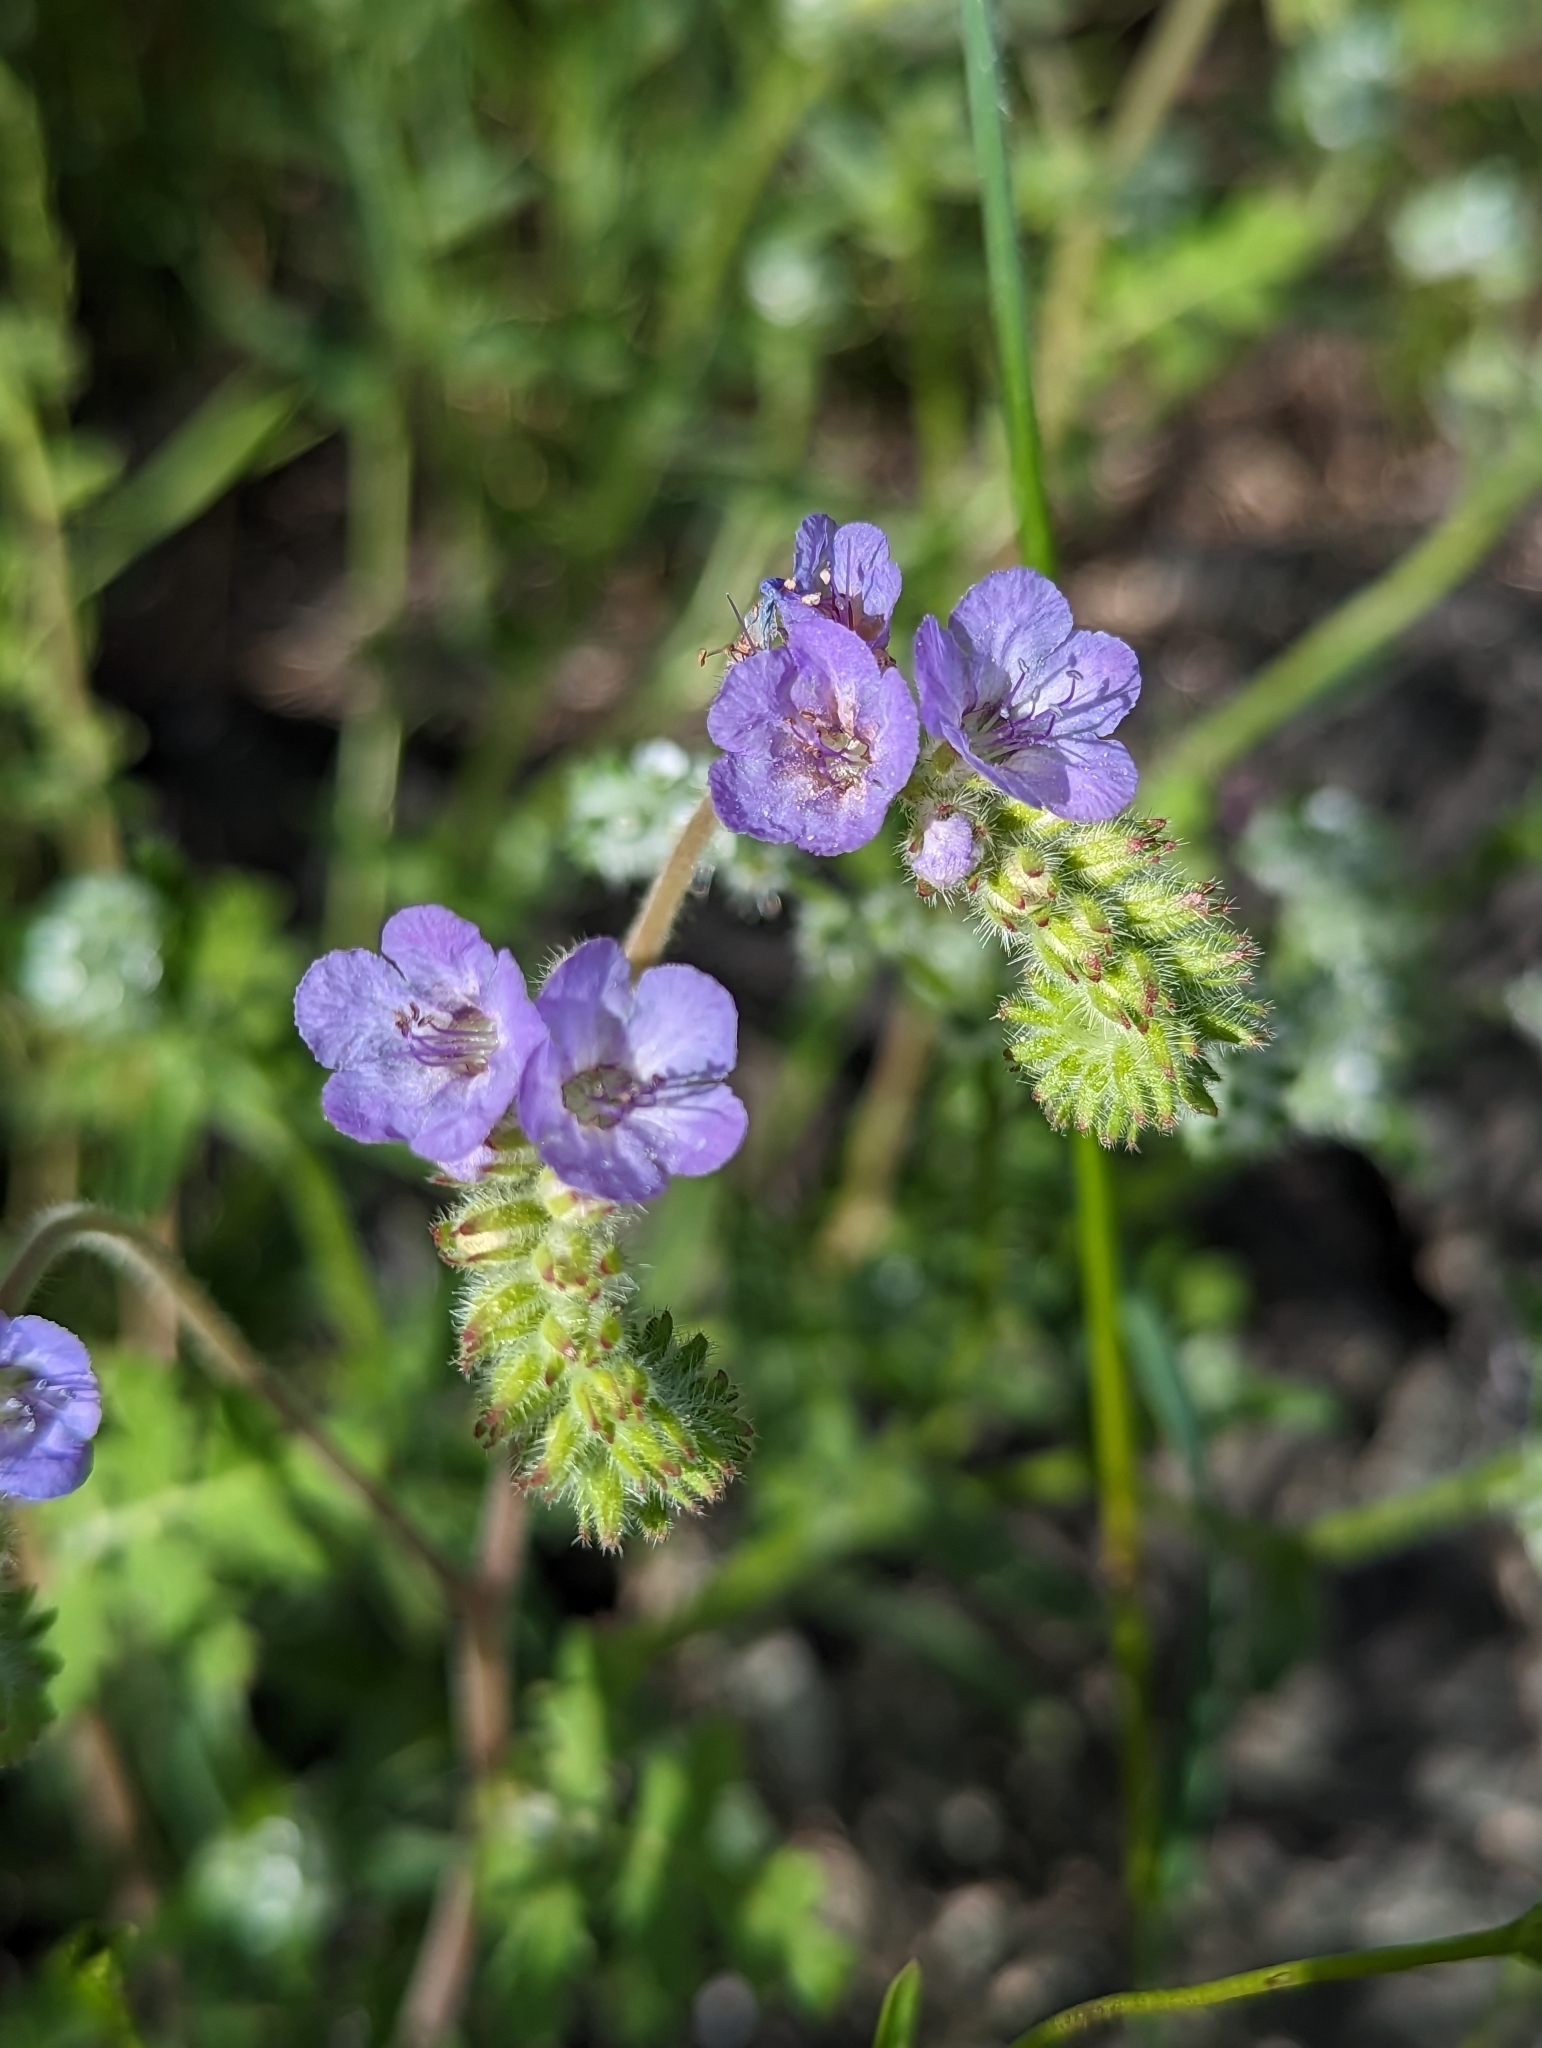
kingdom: Plantae
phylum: Tracheophyta
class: Magnoliopsida
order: Boraginales
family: Hydrophyllaceae
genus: Phacelia
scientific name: Phacelia distans
